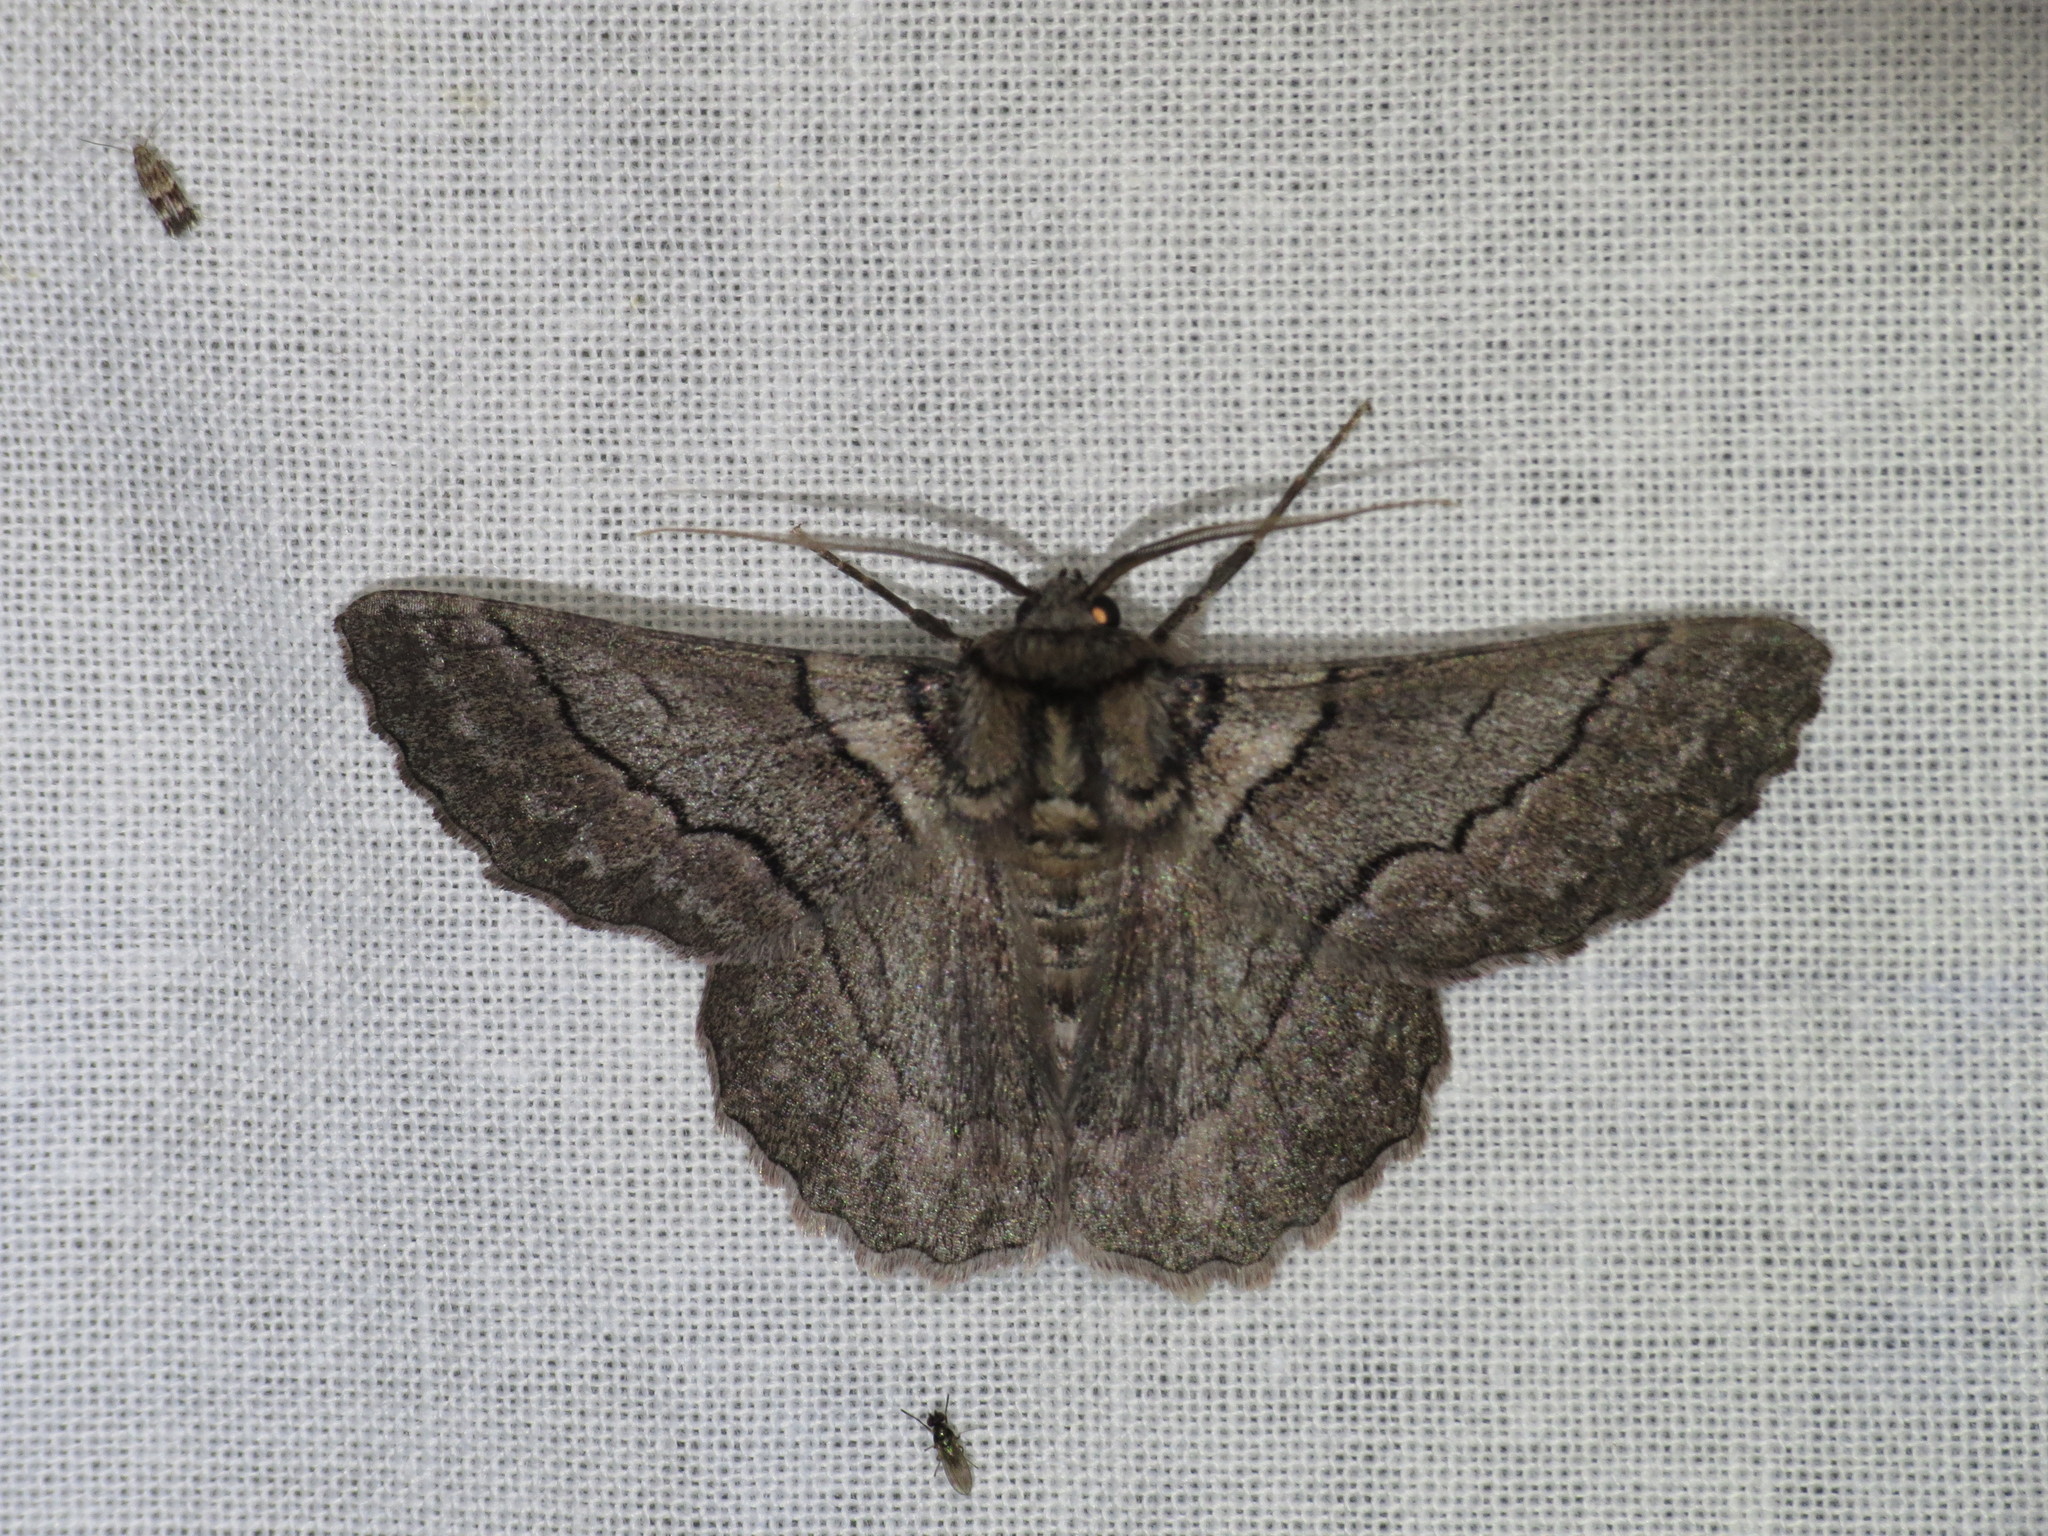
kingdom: Animalia
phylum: Arthropoda
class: Insecta
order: Lepidoptera
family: Geometridae
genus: Hypobapta
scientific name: Hypobapta tachyhalotaria
